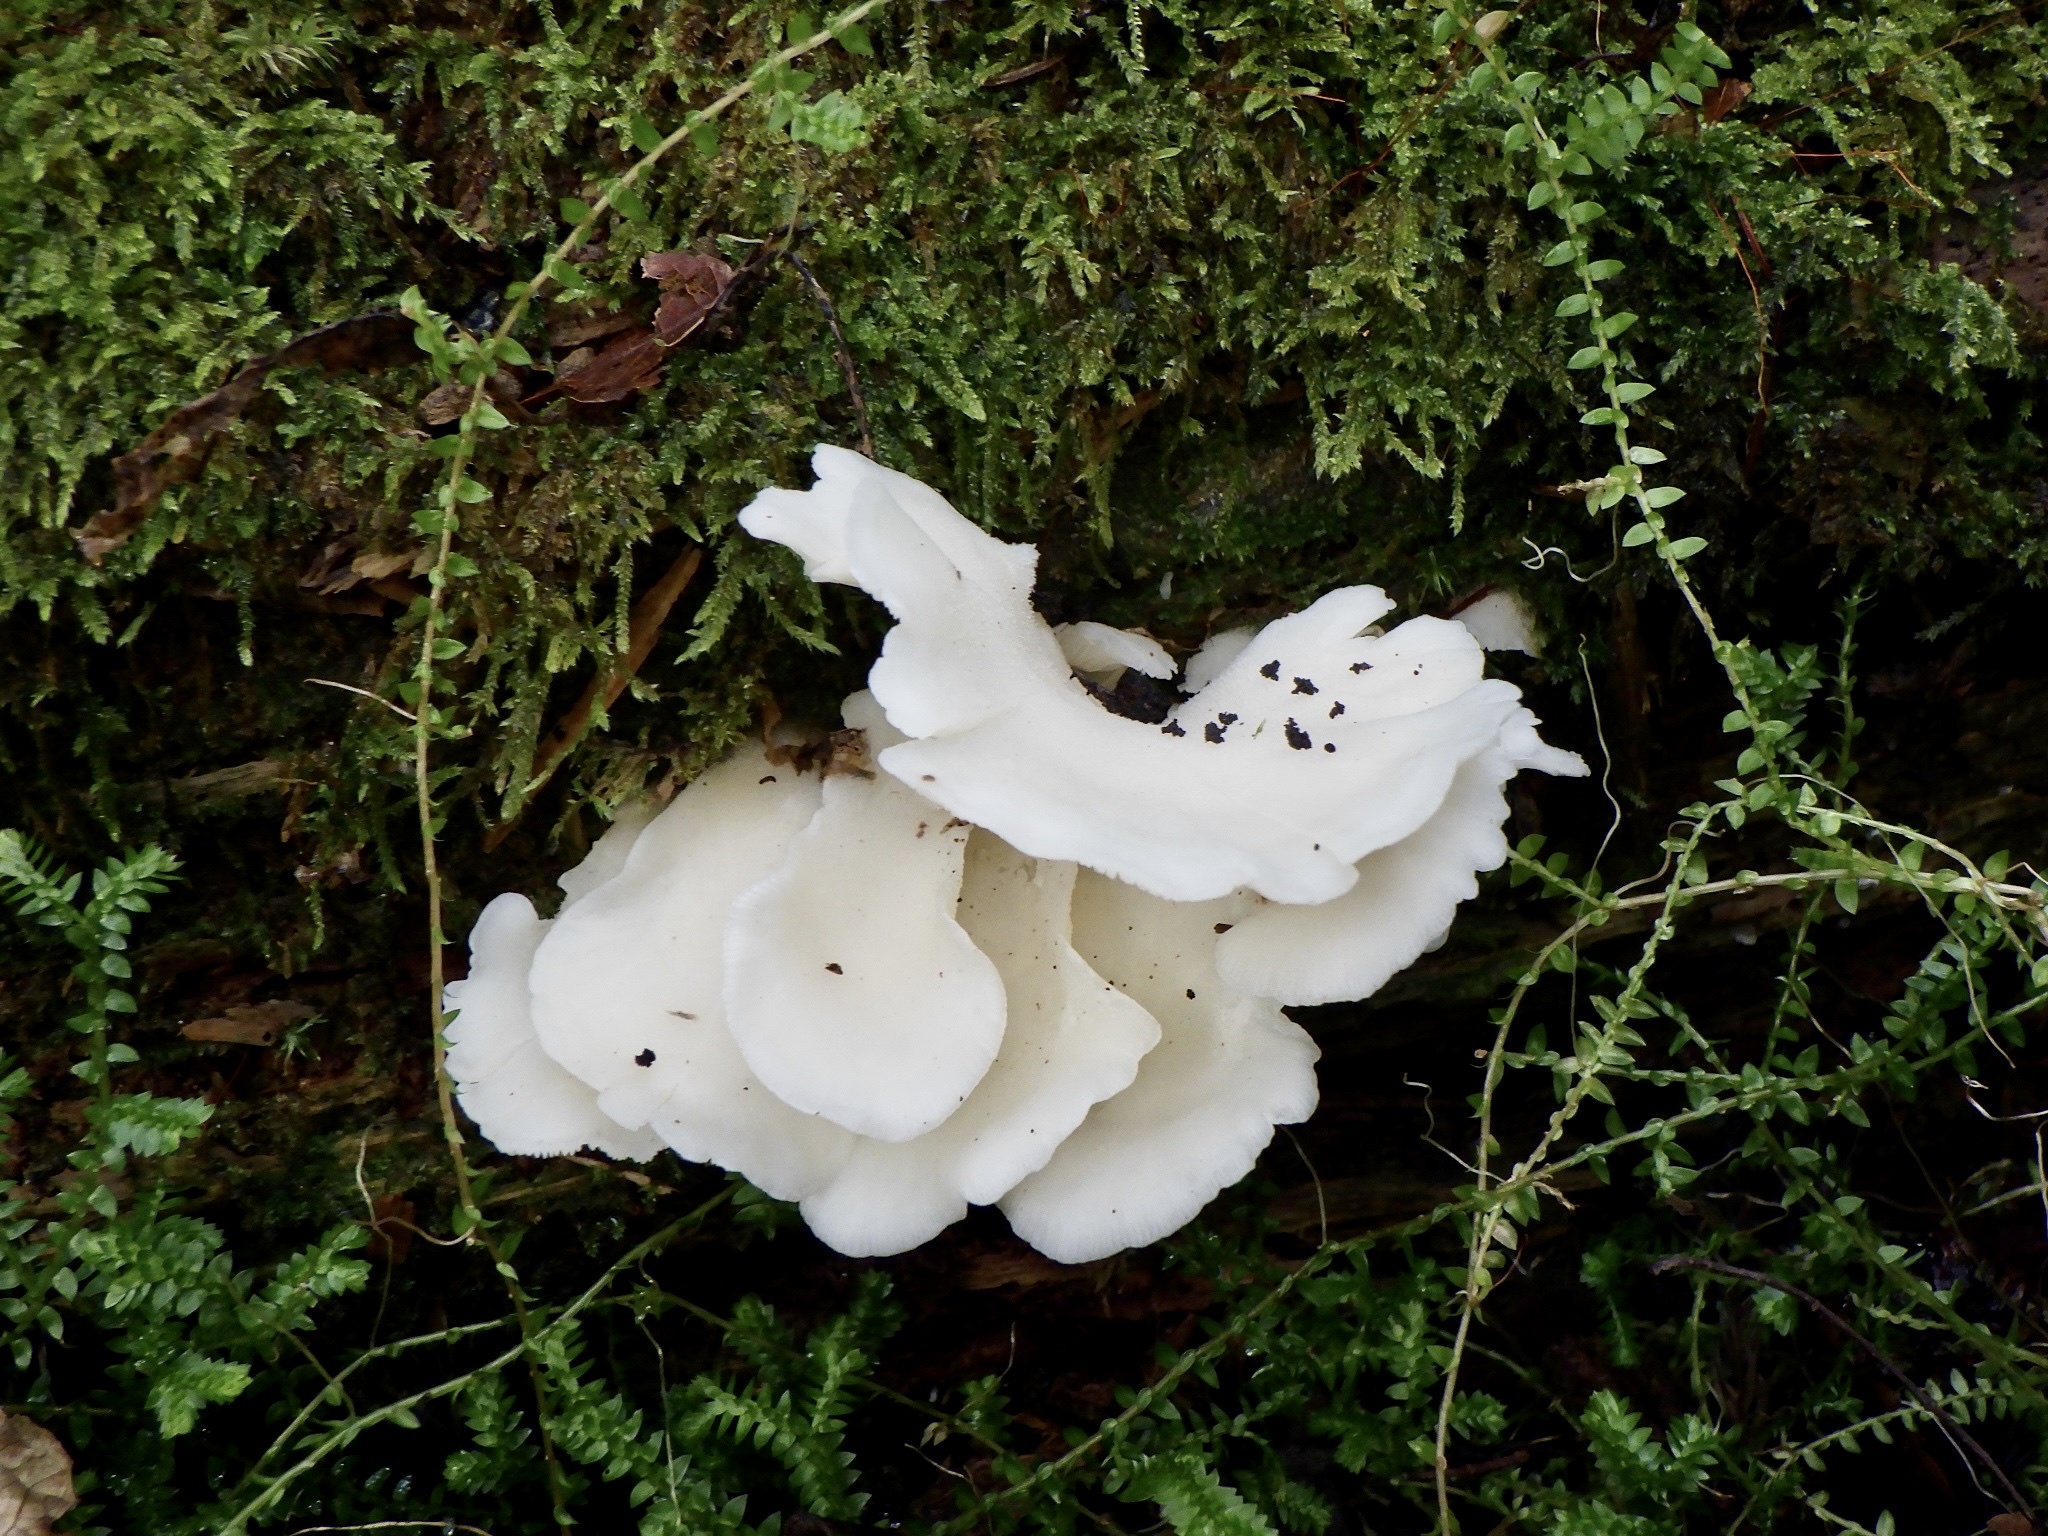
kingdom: Fungi
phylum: Basidiomycota
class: Agaricomycetes
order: Agaricales
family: Marasmiaceae
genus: Pleurocybella
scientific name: Pleurocybella porrigens
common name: Angel's wings
